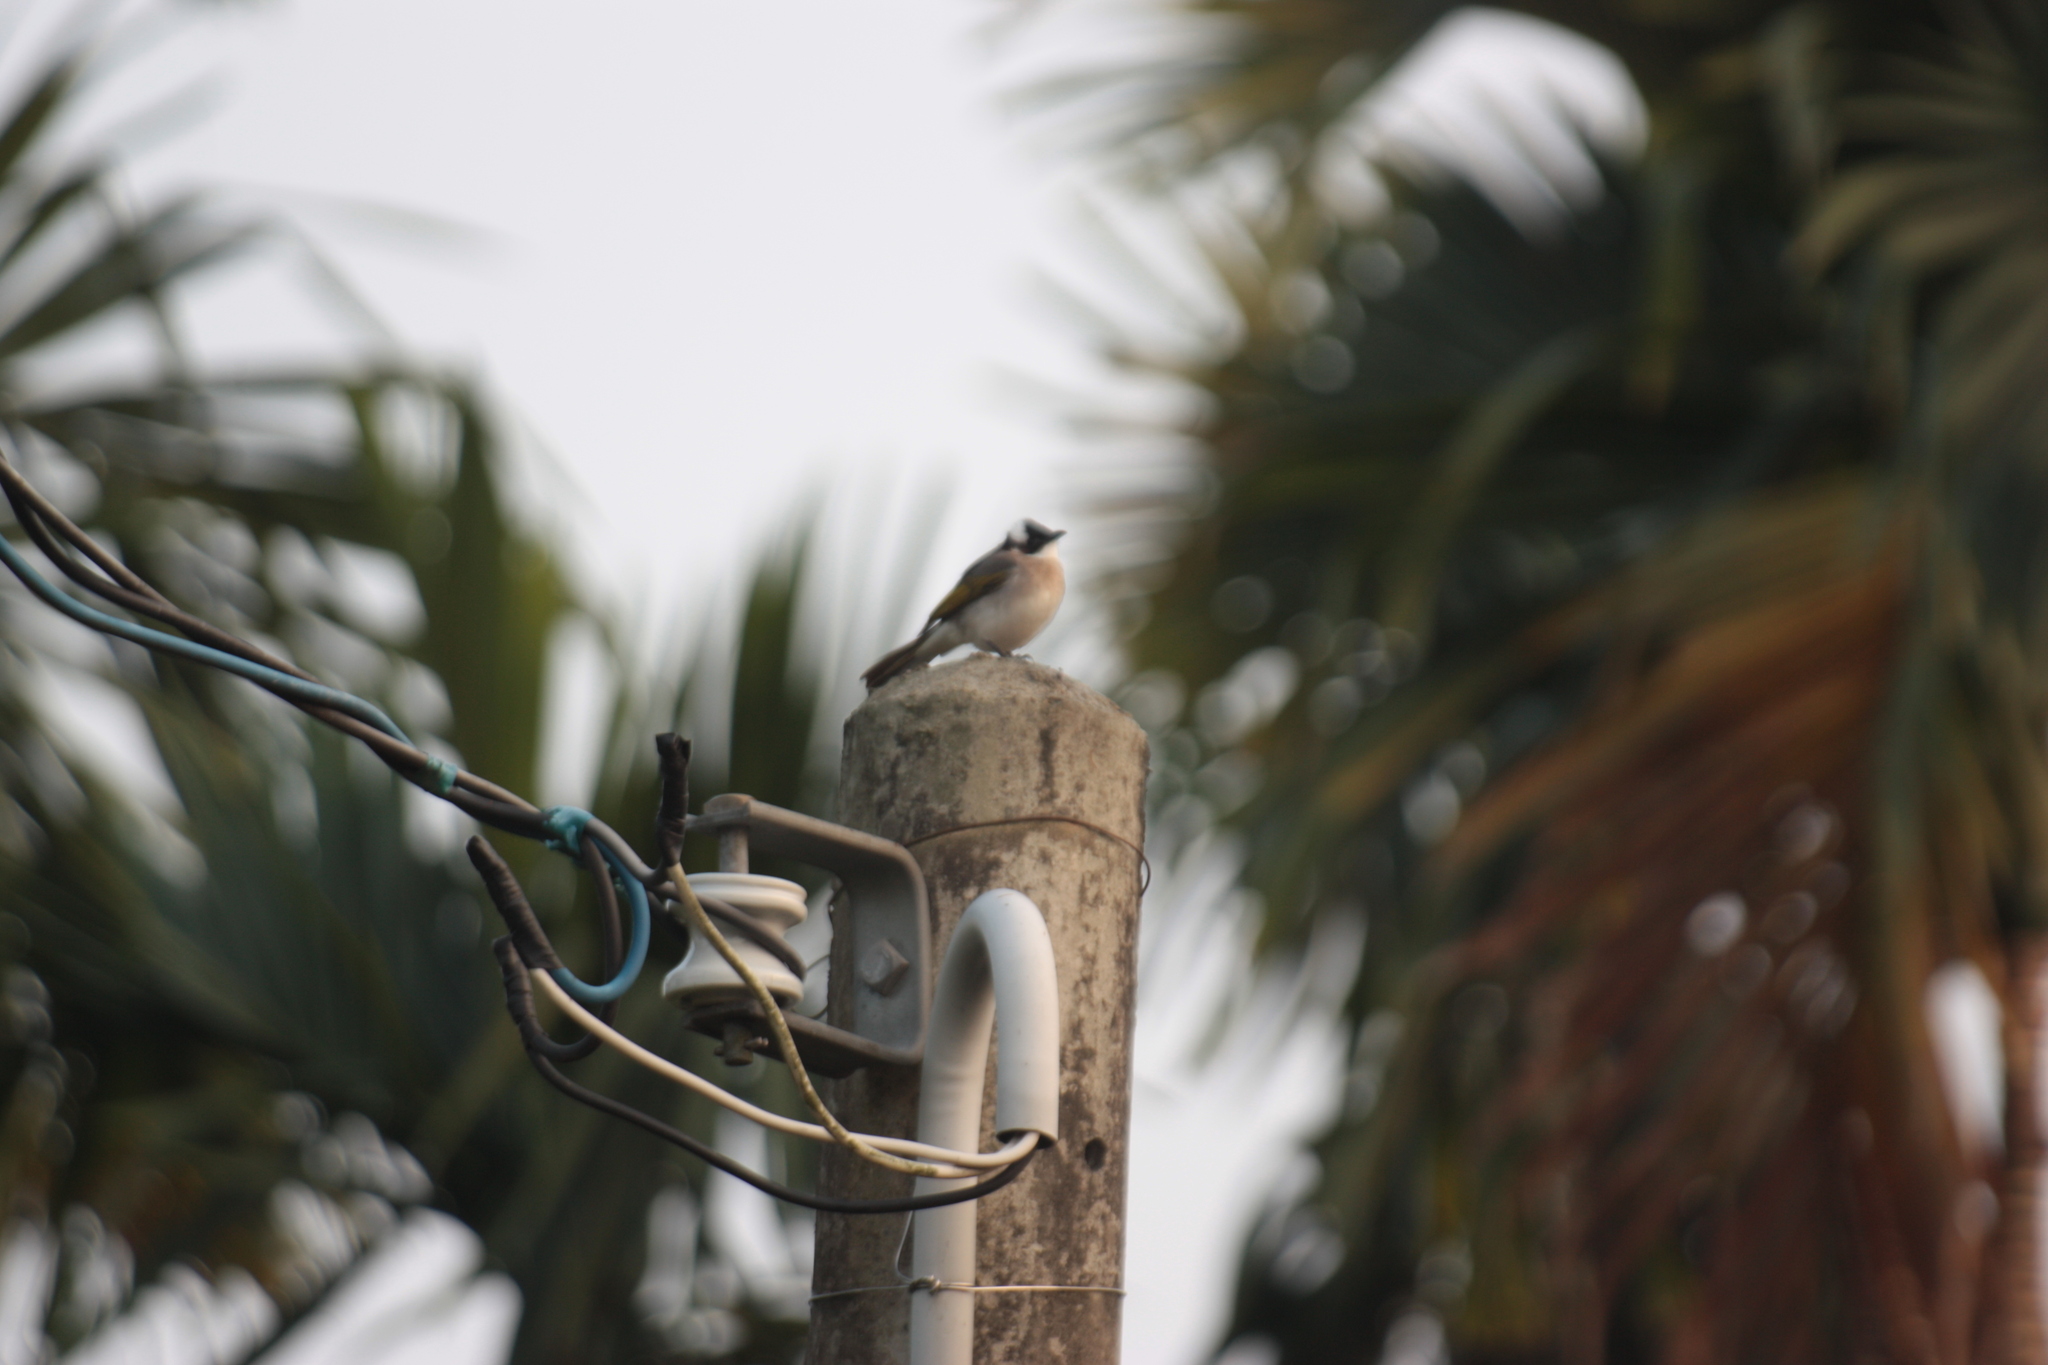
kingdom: Animalia
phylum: Chordata
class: Aves
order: Passeriformes
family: Pycnonotidae
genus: Pycnonotus
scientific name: Pycnonotus sinensis
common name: Light-vented bulbul
